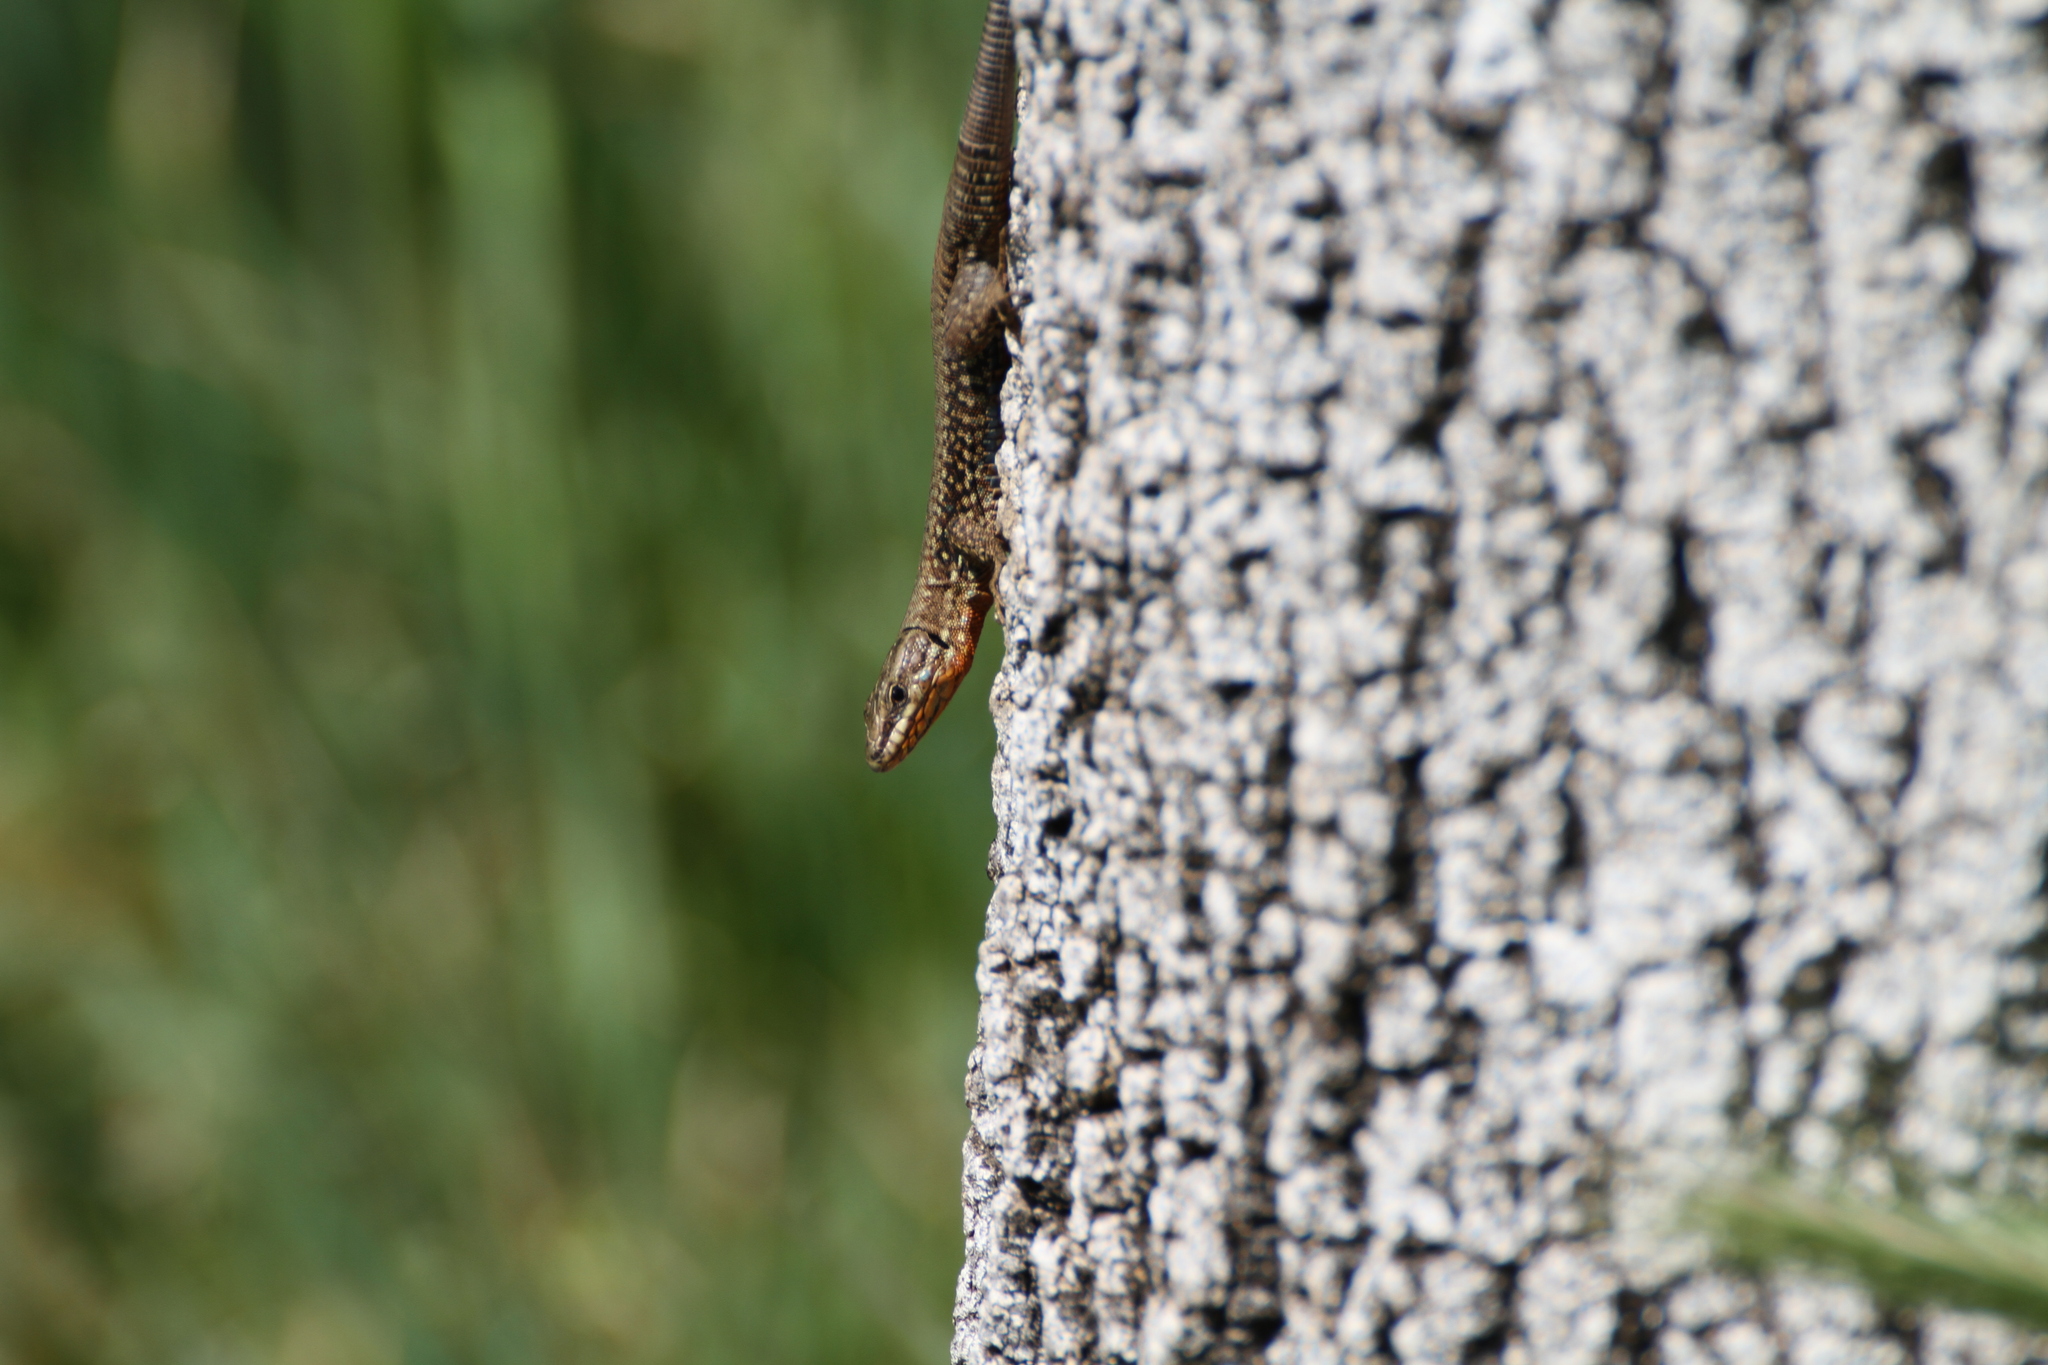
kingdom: Animalia
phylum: Chordata
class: Squamata
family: Lacertidae
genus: Podarcis
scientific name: Podarcis muralis
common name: Common wall lizard
